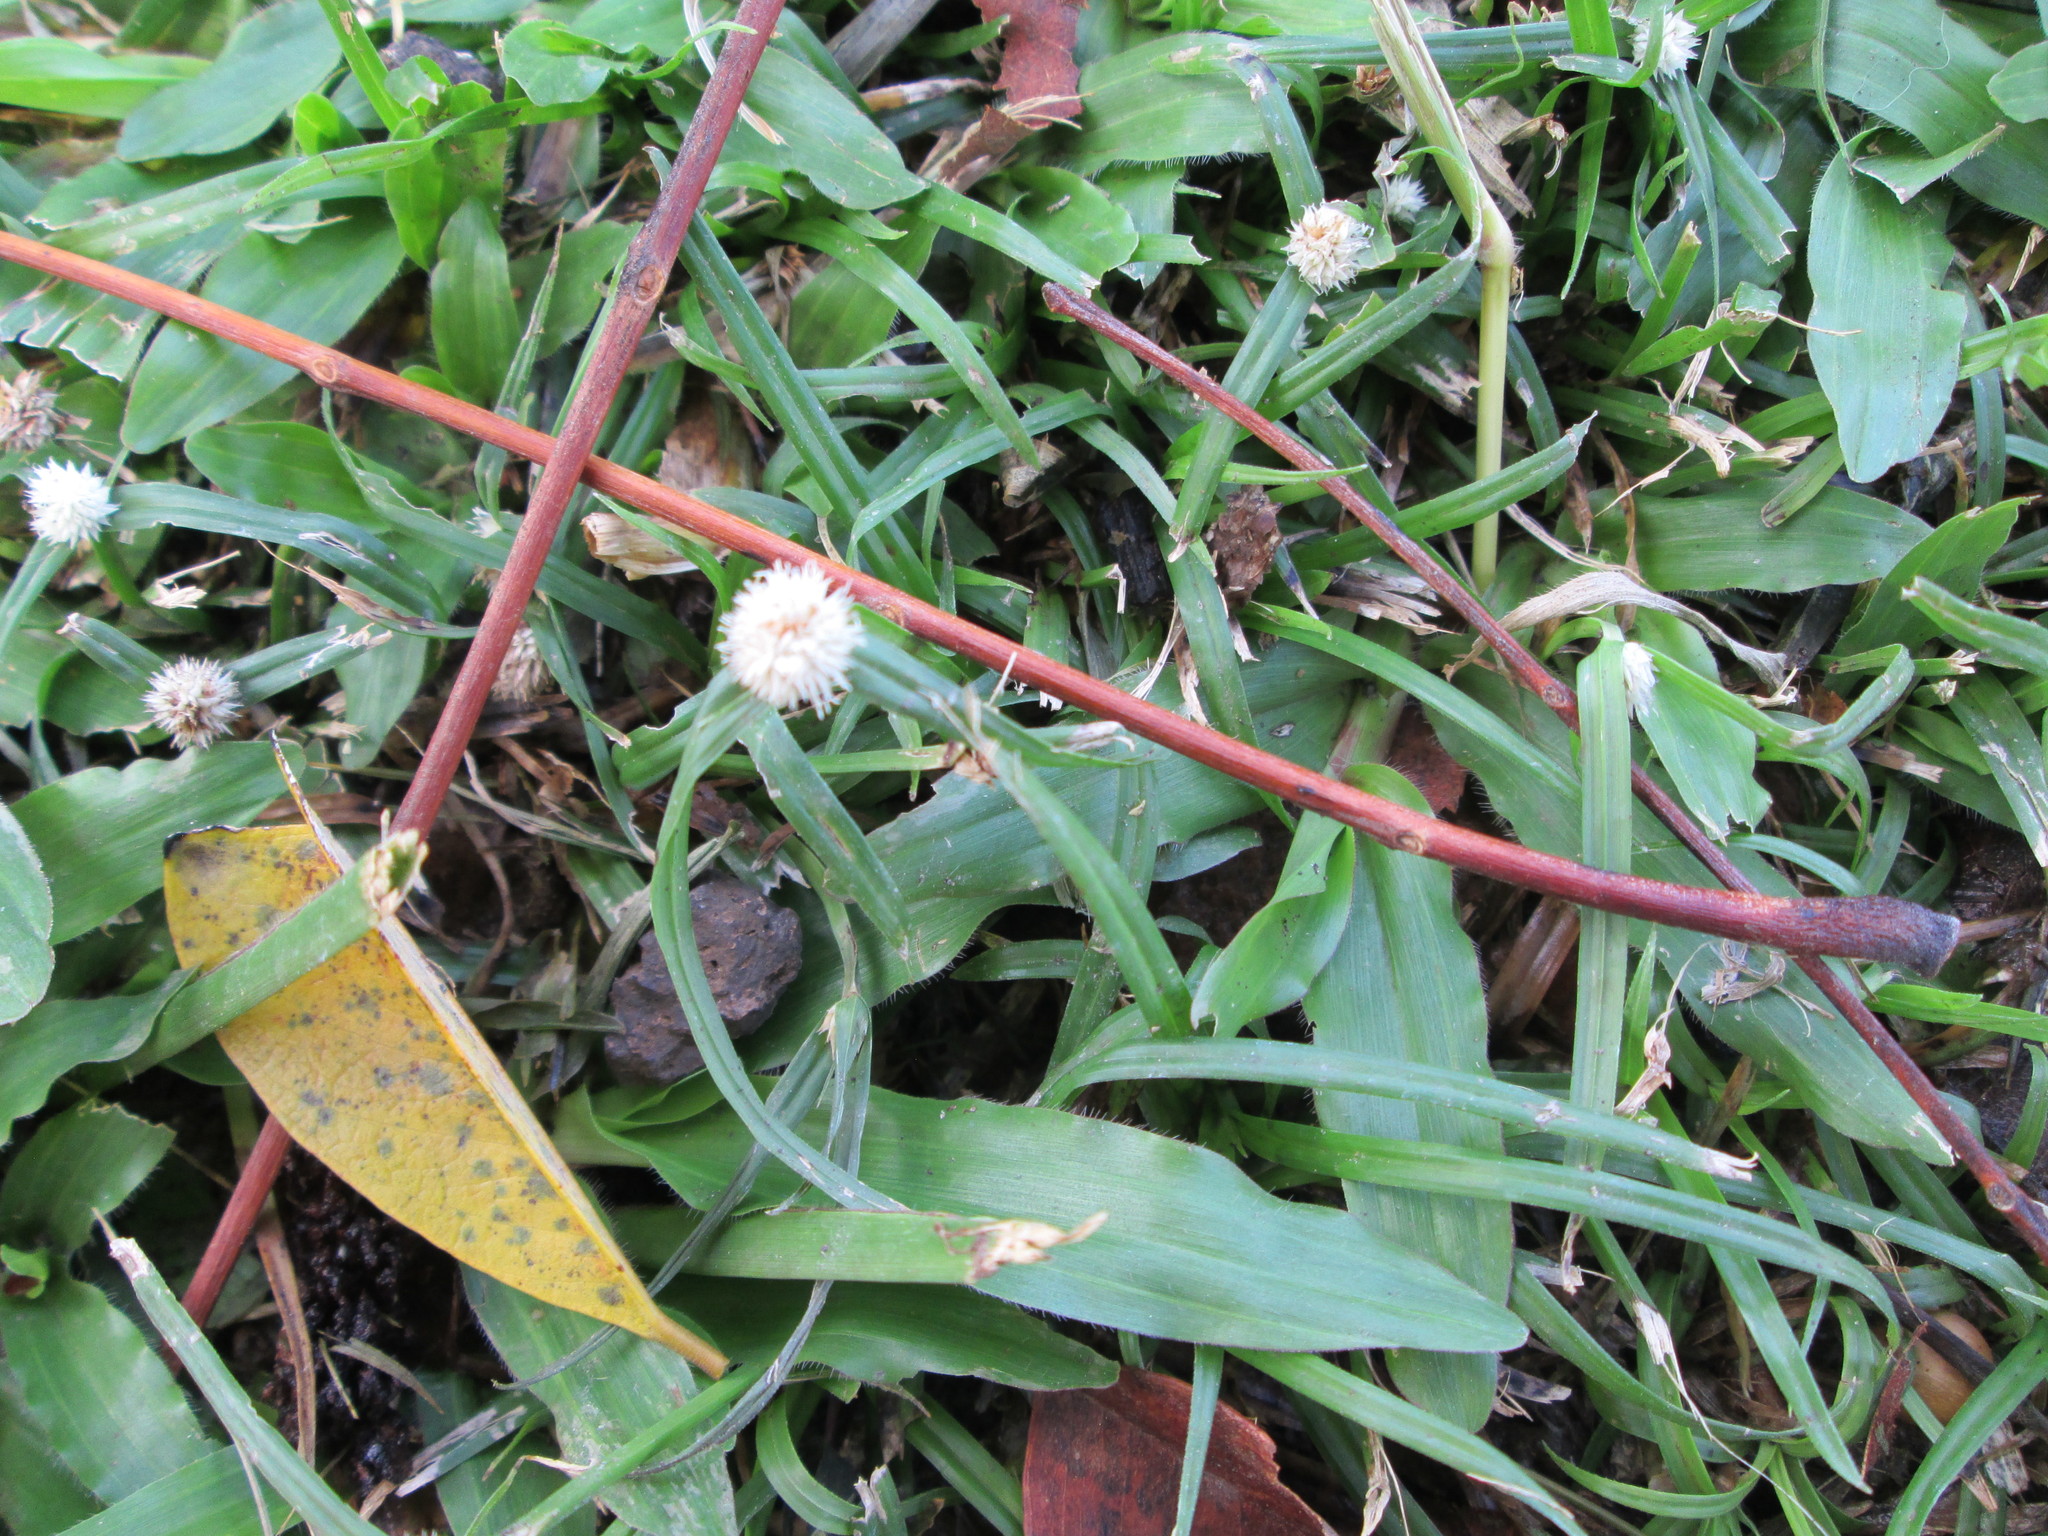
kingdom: Plantae
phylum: Tracheophyta
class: Liliopsida
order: Poales
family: Cyperaceae
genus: Cyperus
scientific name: Cyperus mindorensis
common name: Flatsedge
